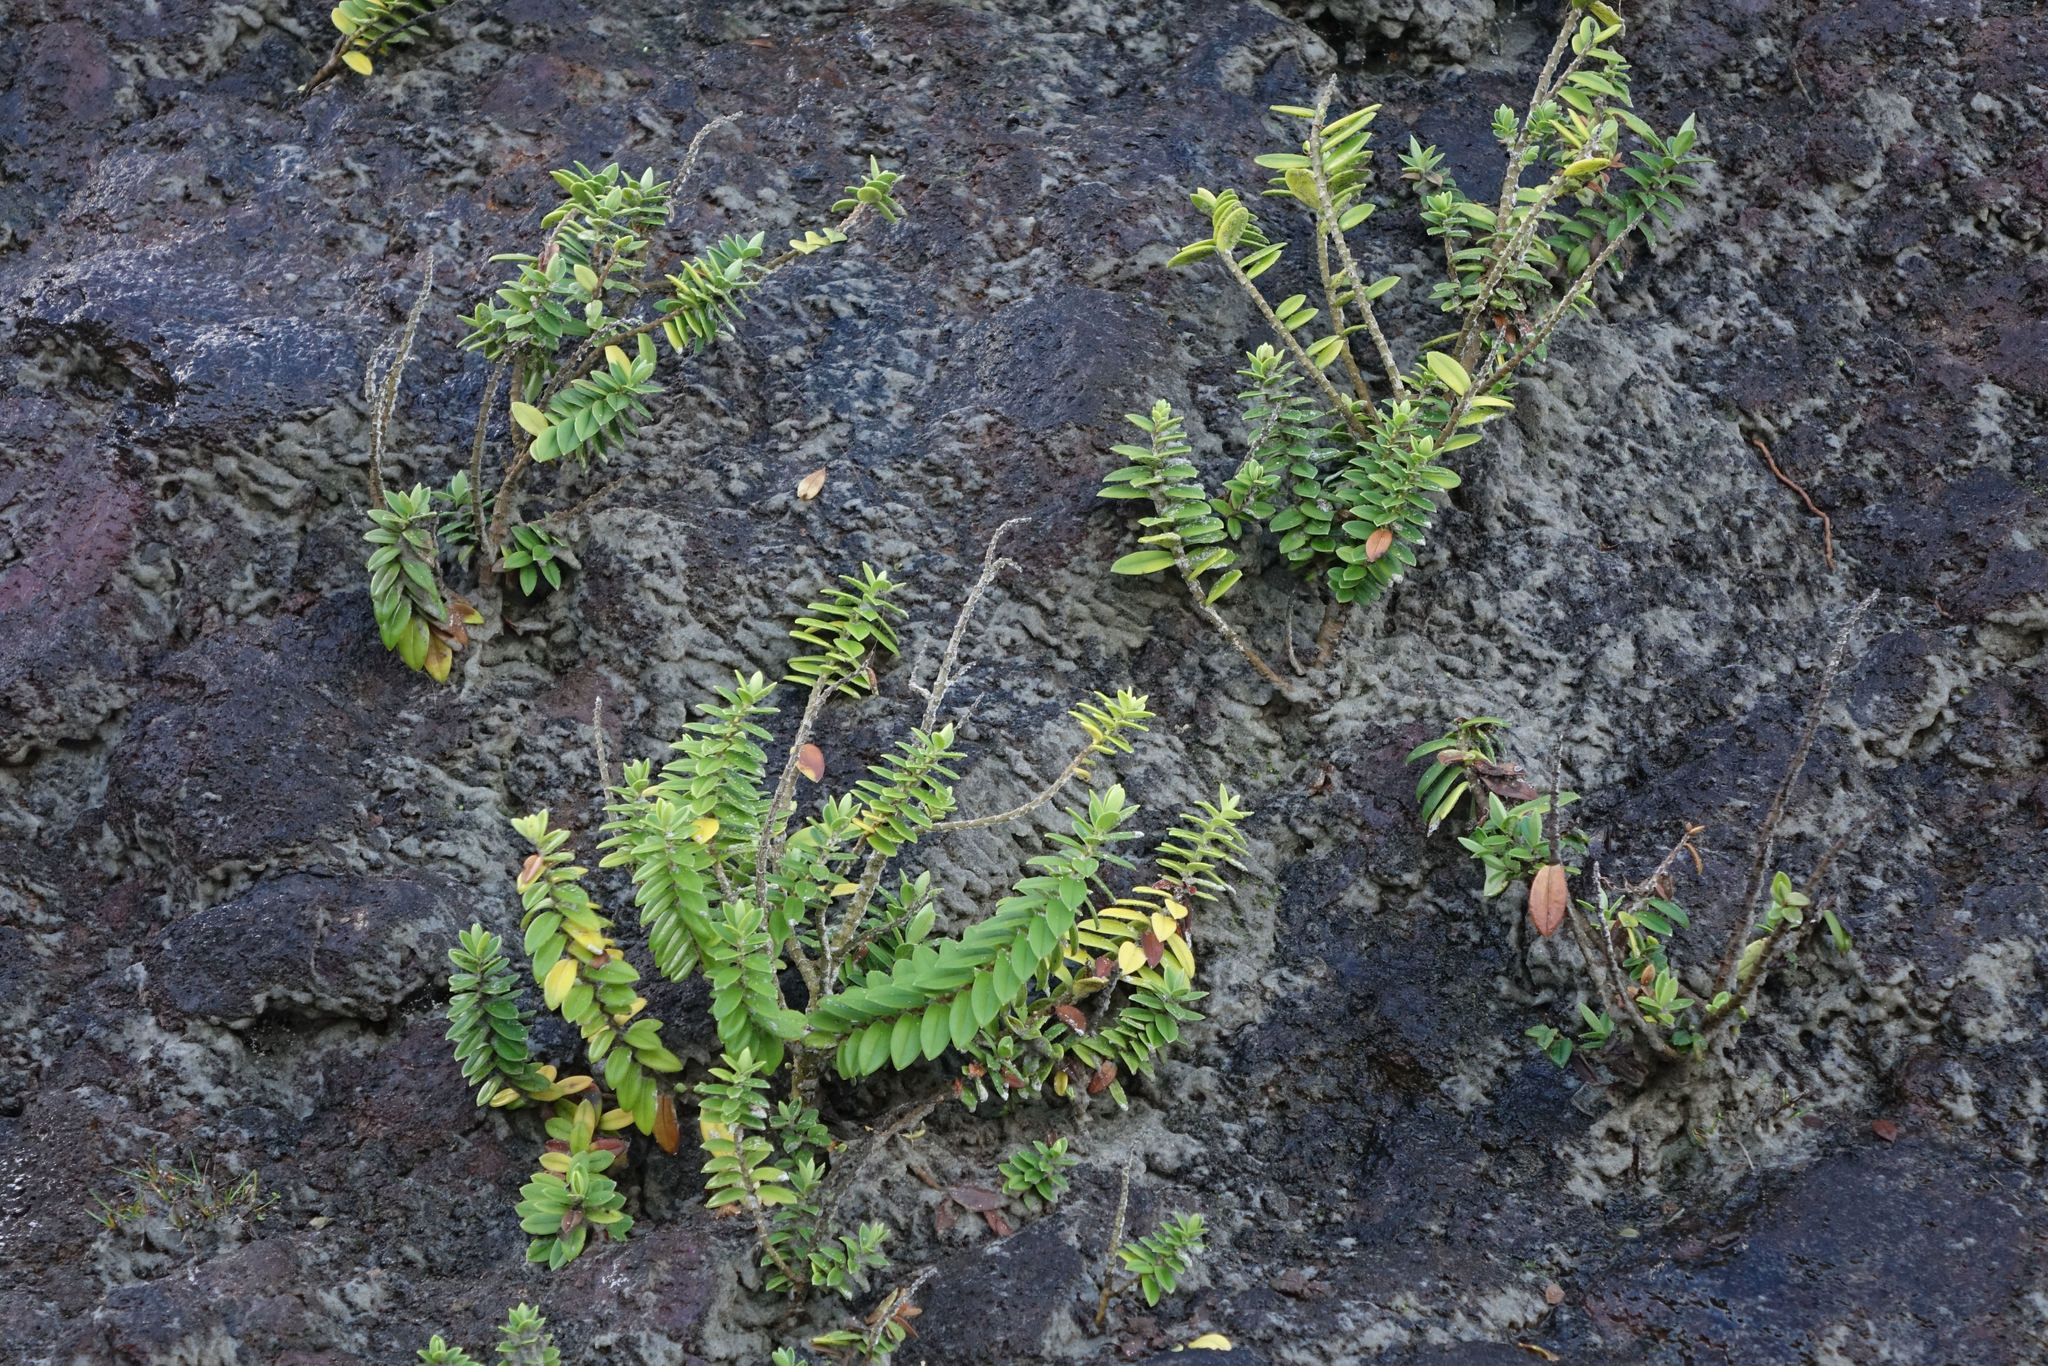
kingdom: Plantae
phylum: Tracheophyta
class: Magnoliopsida
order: Lamiales
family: Plantaginaceae
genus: Veronica
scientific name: Veronica elliptica
